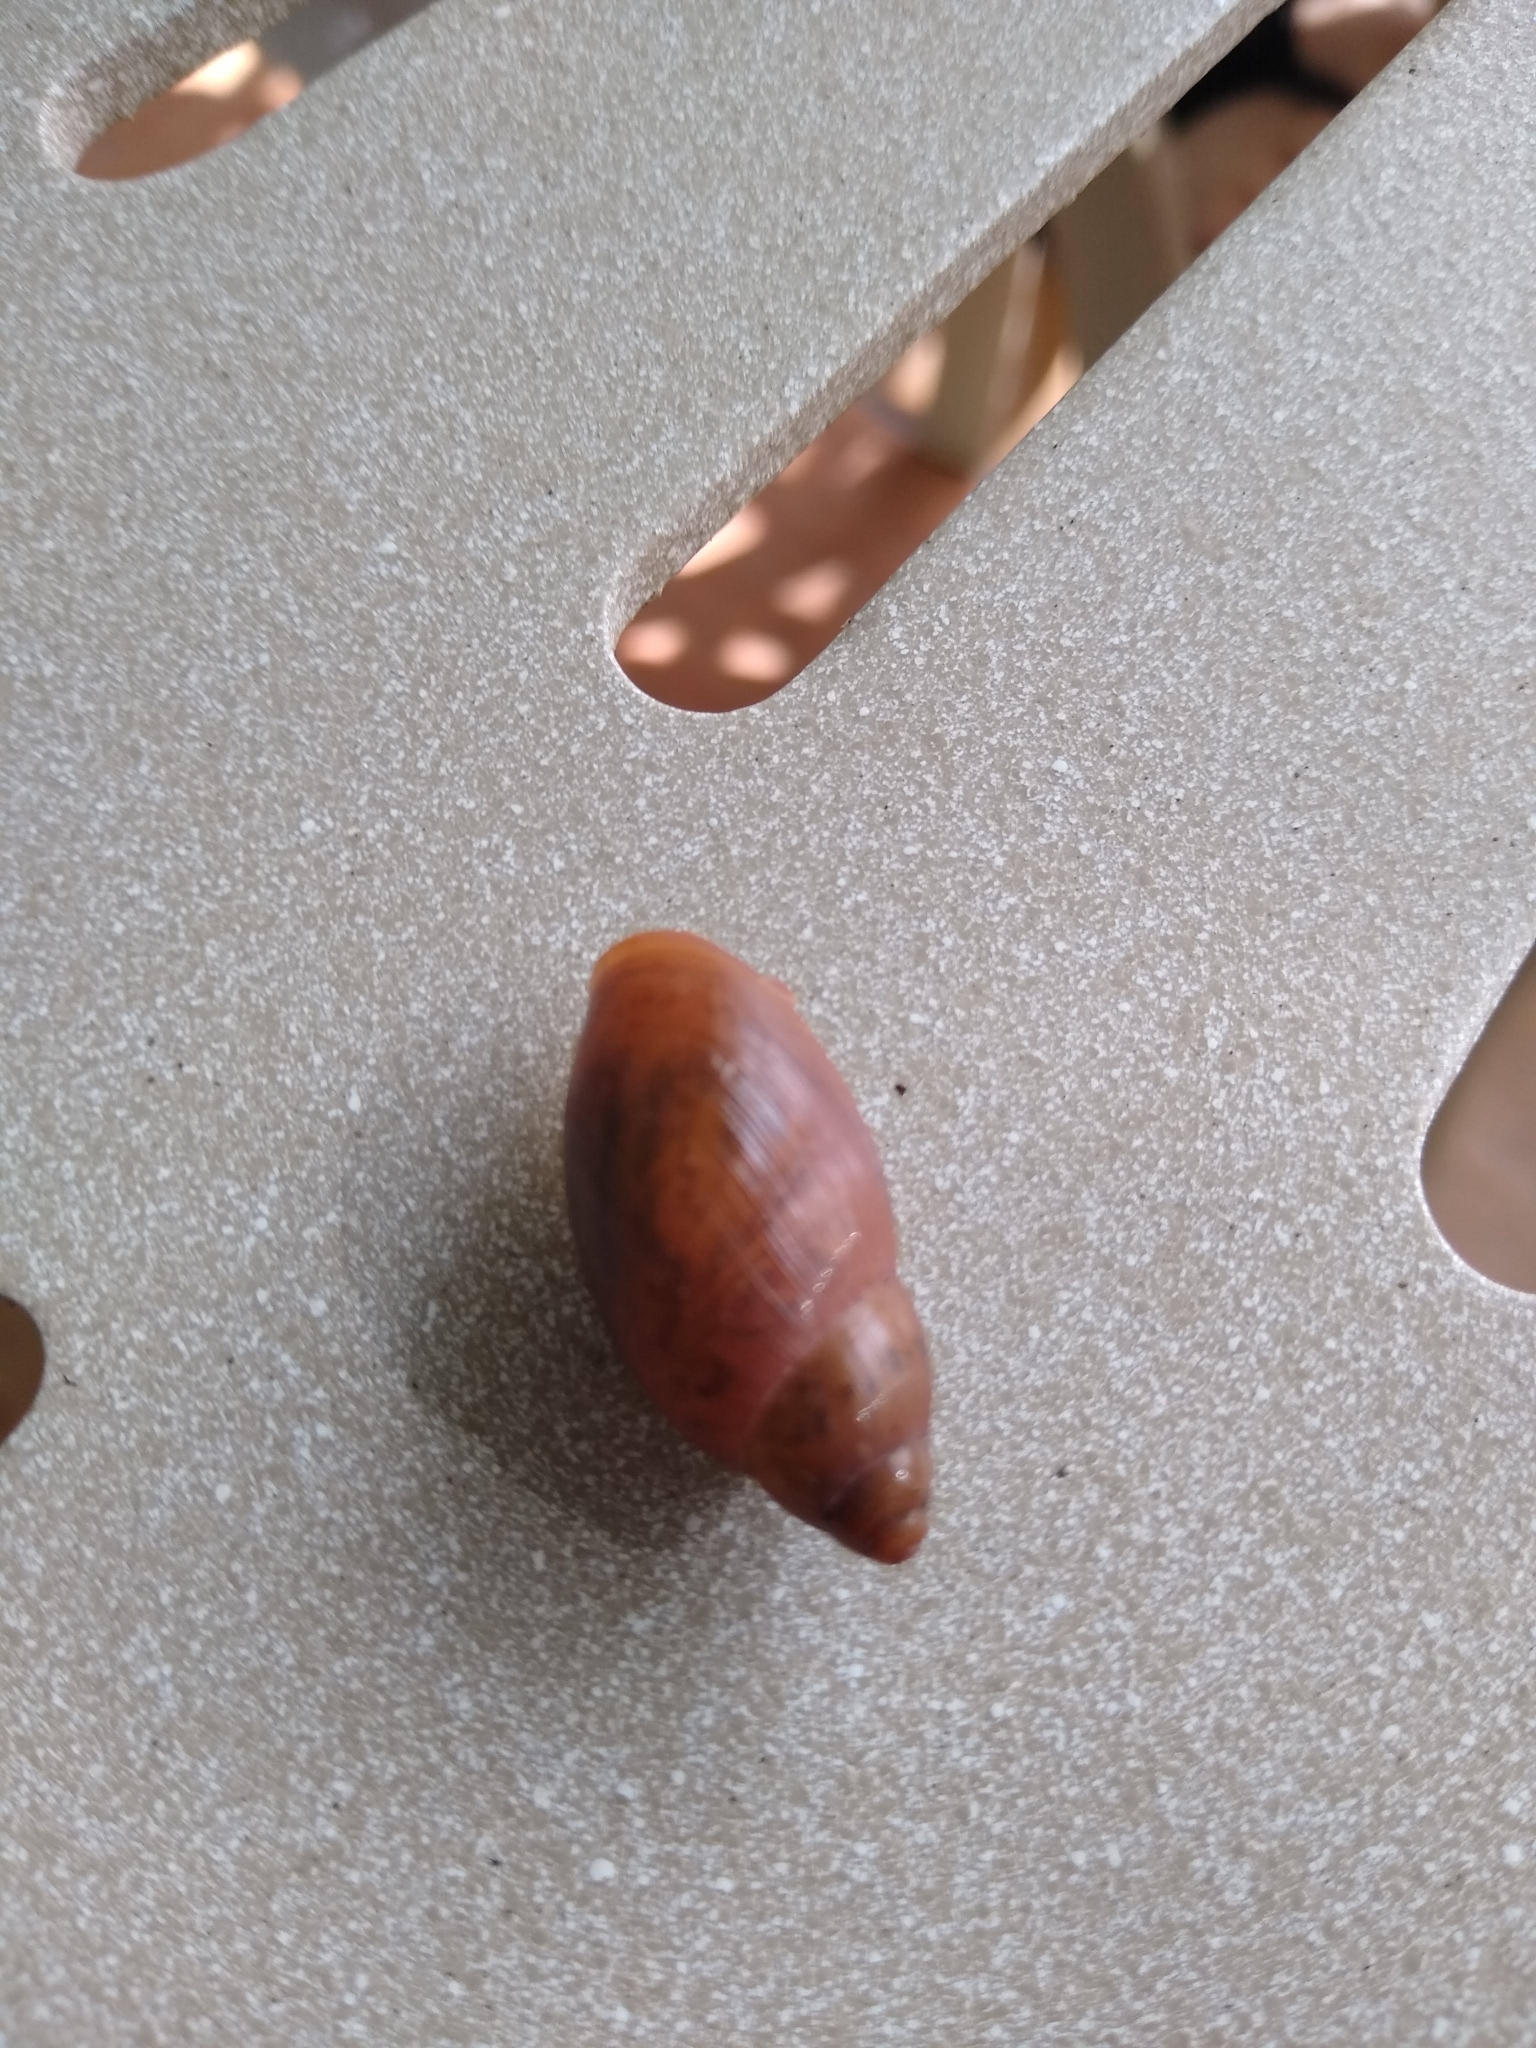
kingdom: Animalia
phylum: Mollusca
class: Gastropoda
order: Stylommatophora
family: Spiraxidae
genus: Euglandina
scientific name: Euglandina rosea
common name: Rosy wolfsnail
